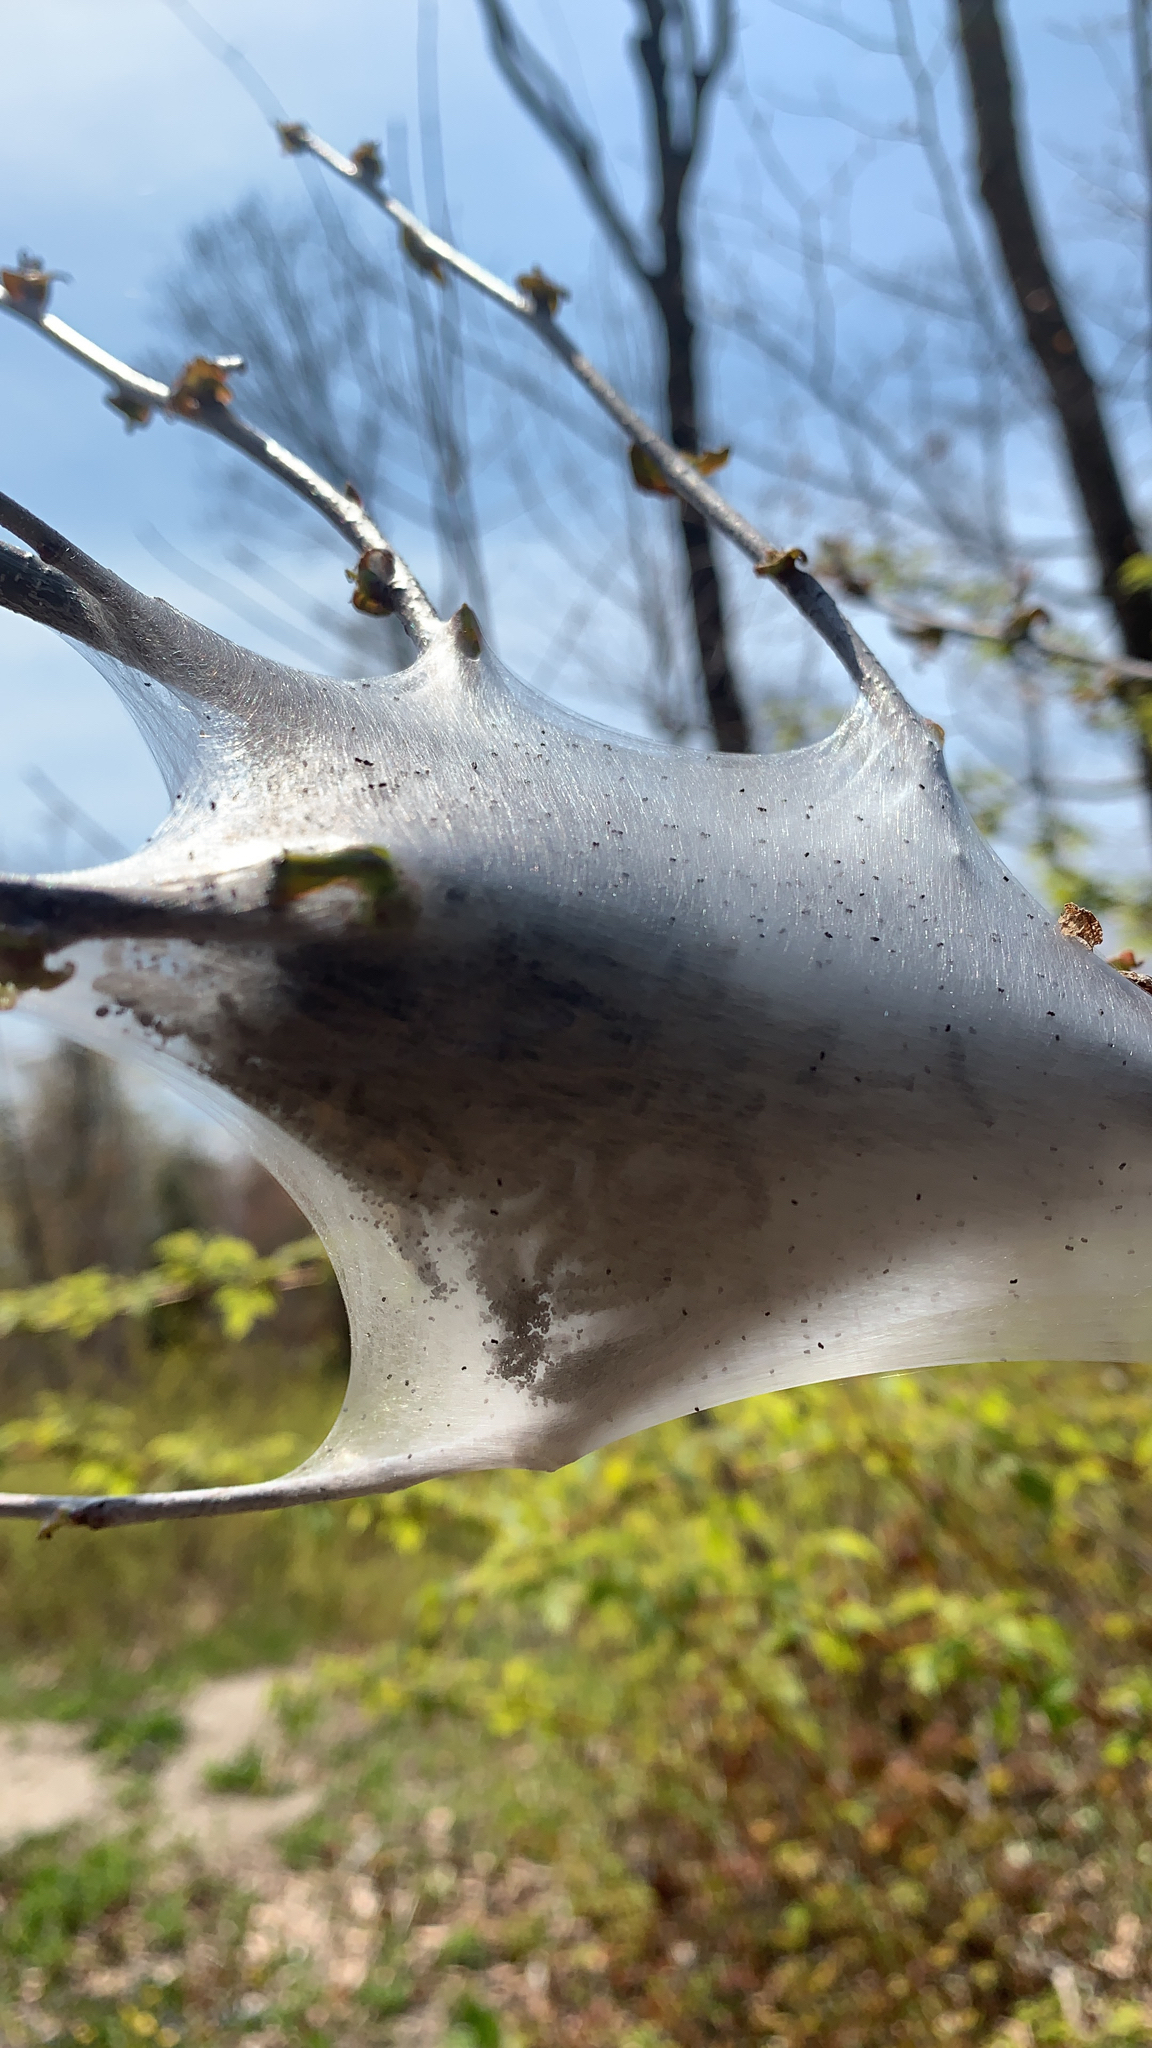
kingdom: Animalia
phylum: Arthropoda
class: Insecta
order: Lepidoptera
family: Lasiocampidae
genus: Malacosoma
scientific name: Malacosoma americana
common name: Eastern tent caterpillar moth
